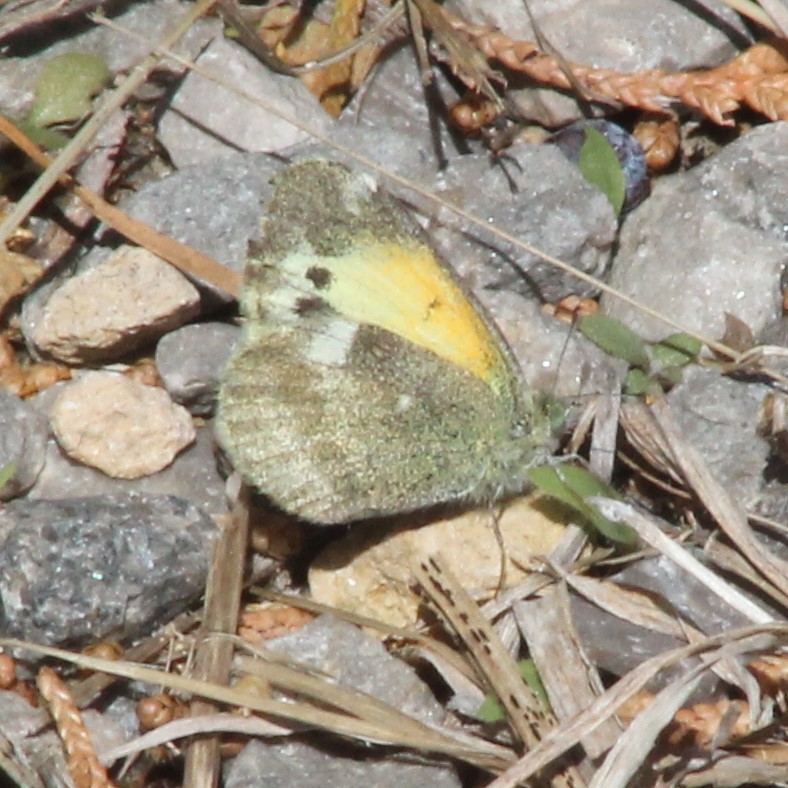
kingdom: Animalia
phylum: Arthropoda
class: Insecta
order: Lepidoptera
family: Pieridae
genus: Nathalis
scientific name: Nathalis iole
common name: Dainty sulphur
